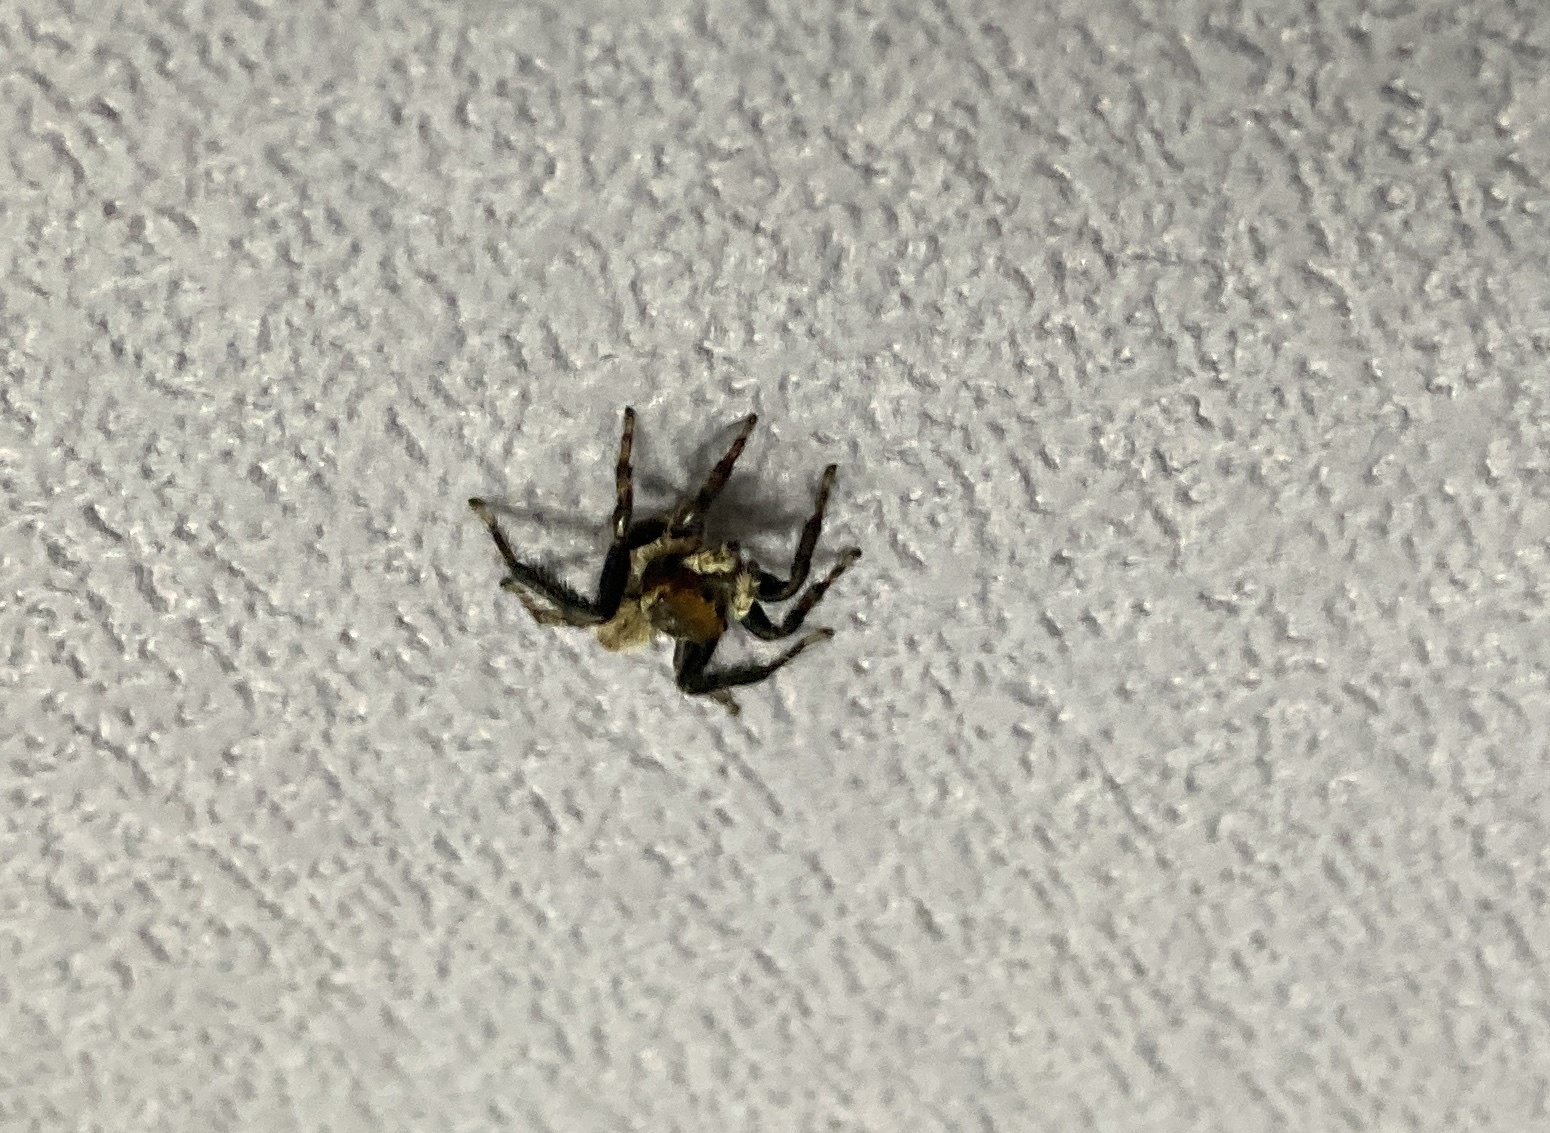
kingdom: Animalia
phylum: Arthropoda
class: Arachnida
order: Araneae
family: Salticidae
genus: Maratus
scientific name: Maratus griseus
